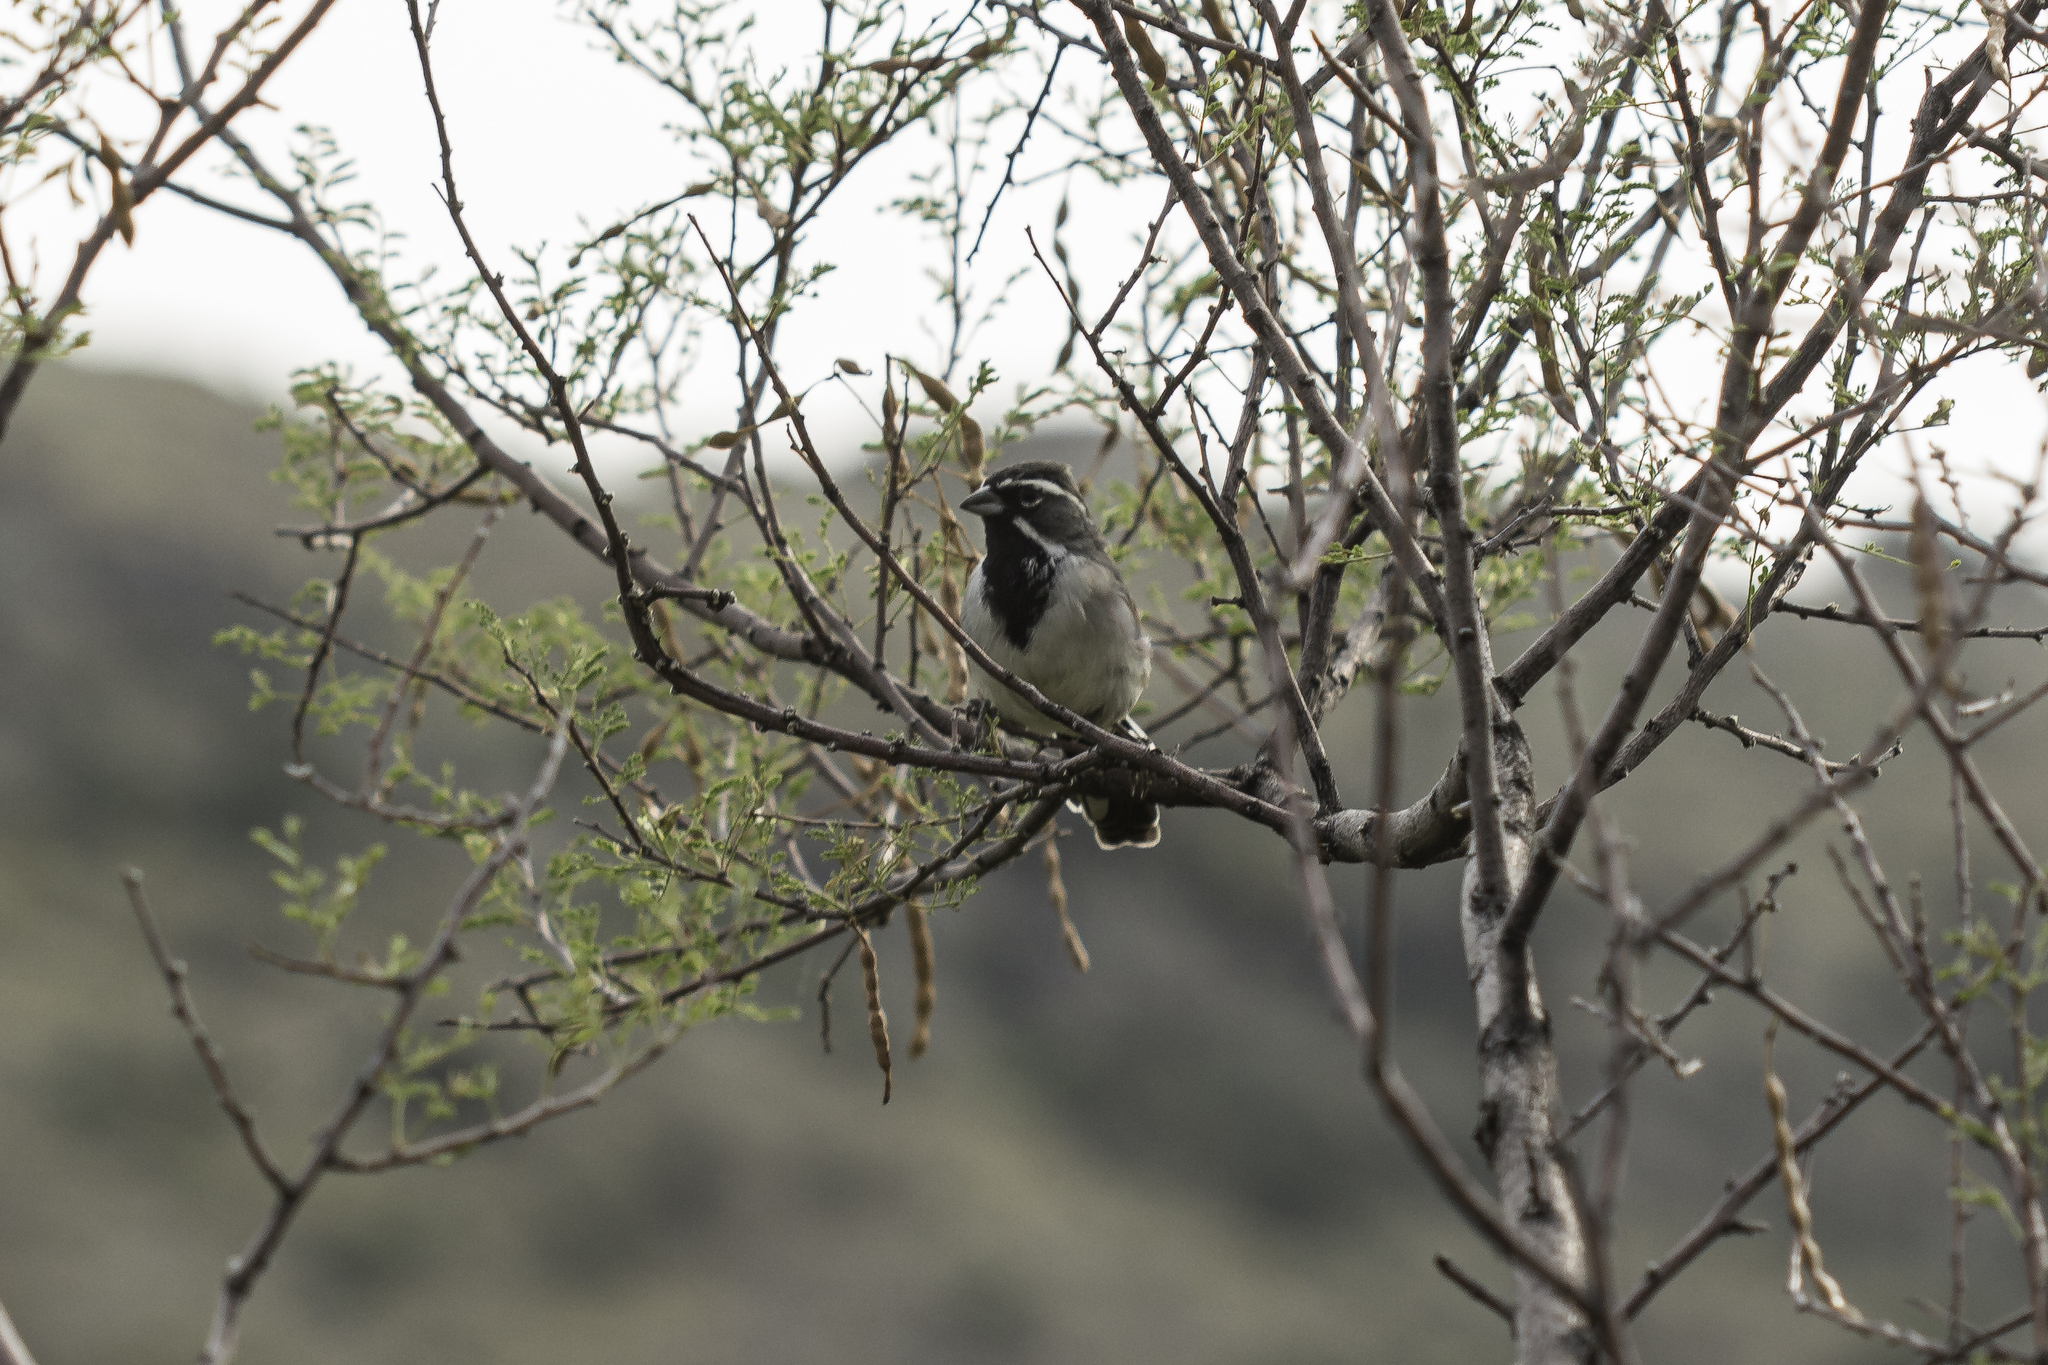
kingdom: Animalia
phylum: Chordata
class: Aves
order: Passeriformes
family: Passerellidae
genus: Amphispiza
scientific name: Amphispiza bilineata
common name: Black-throated sparrow
